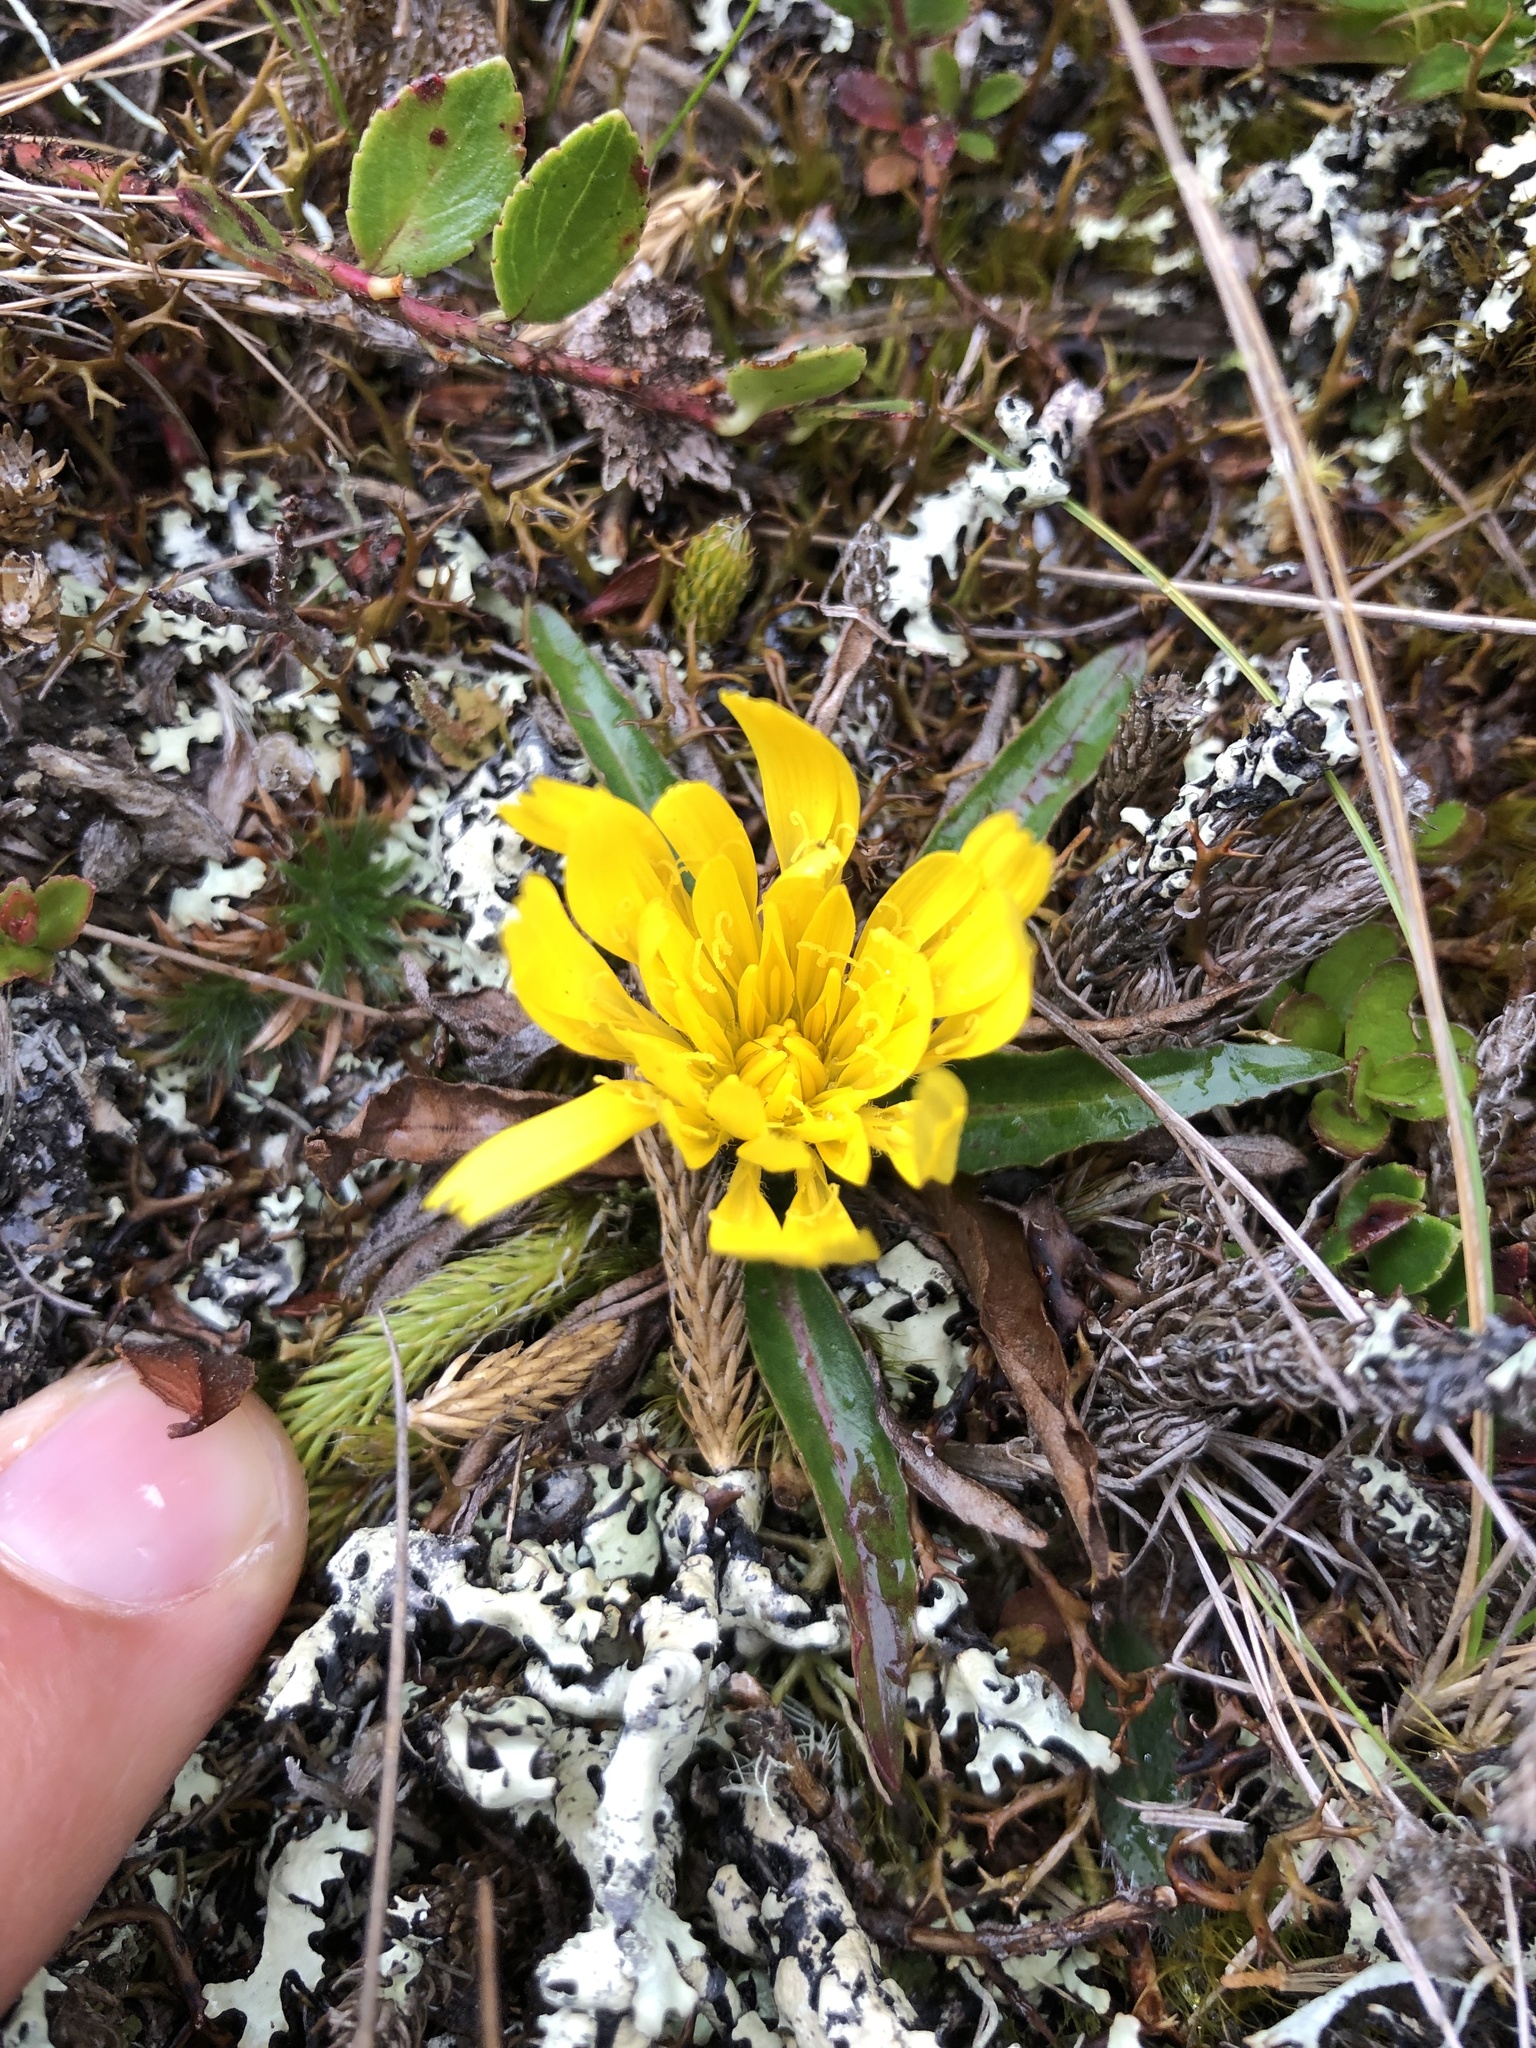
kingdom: Plantae
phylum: Tracheophyta
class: Magnoliopsida
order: Asterales
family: Asteraceae
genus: Hypochaeris
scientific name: Hypochaeris sessiliflora
